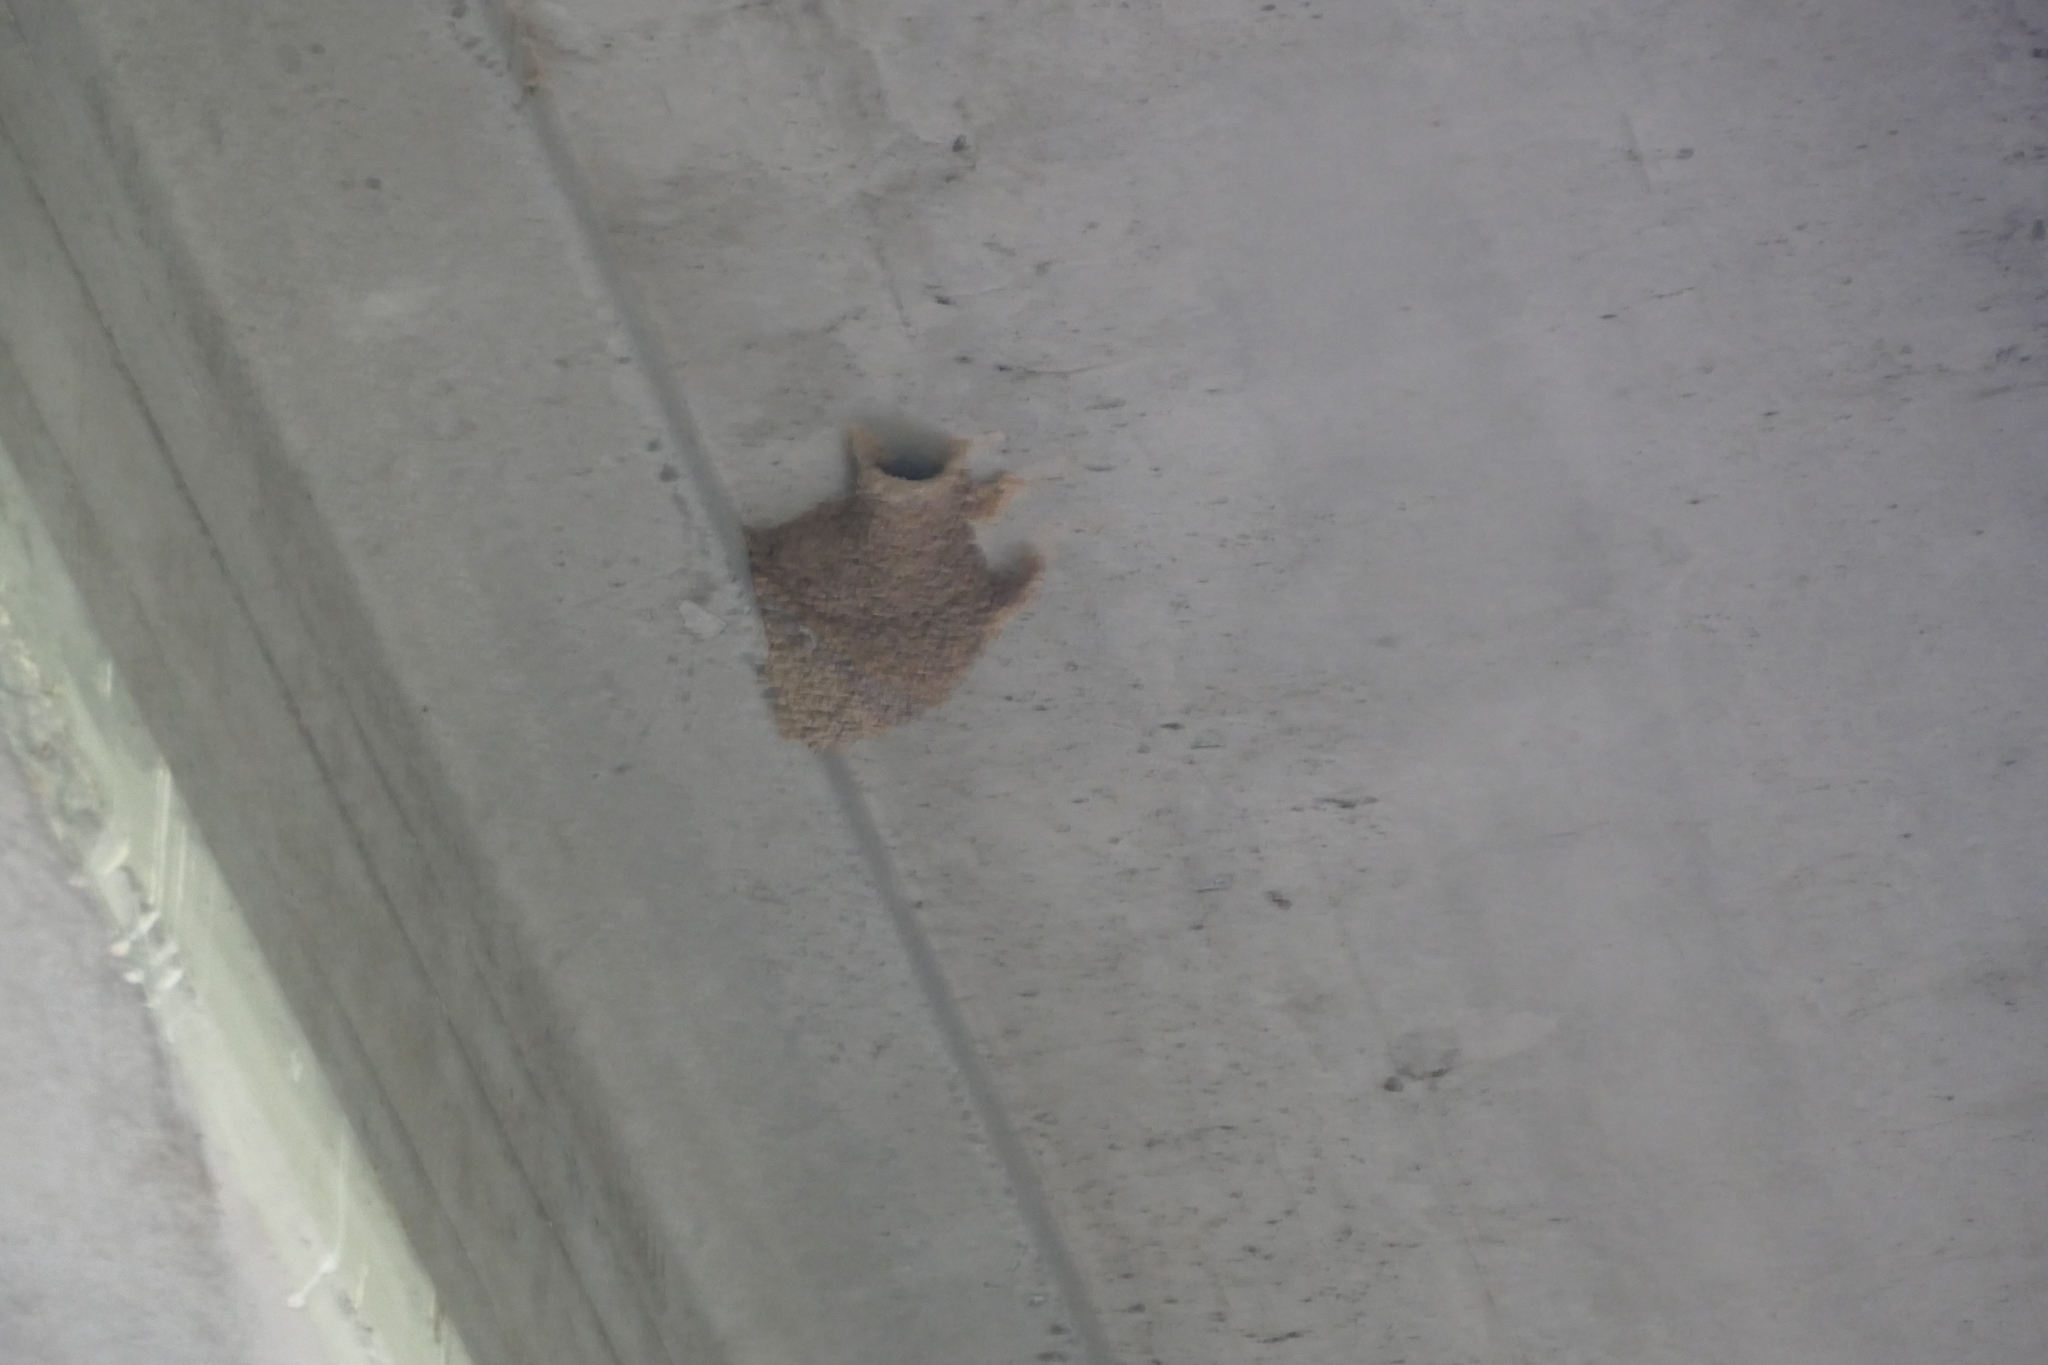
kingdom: Animalia
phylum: Chordata
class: Aves
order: Passeriformes
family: Hirundinidae
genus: Cecropis
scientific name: Cecropis daurica
